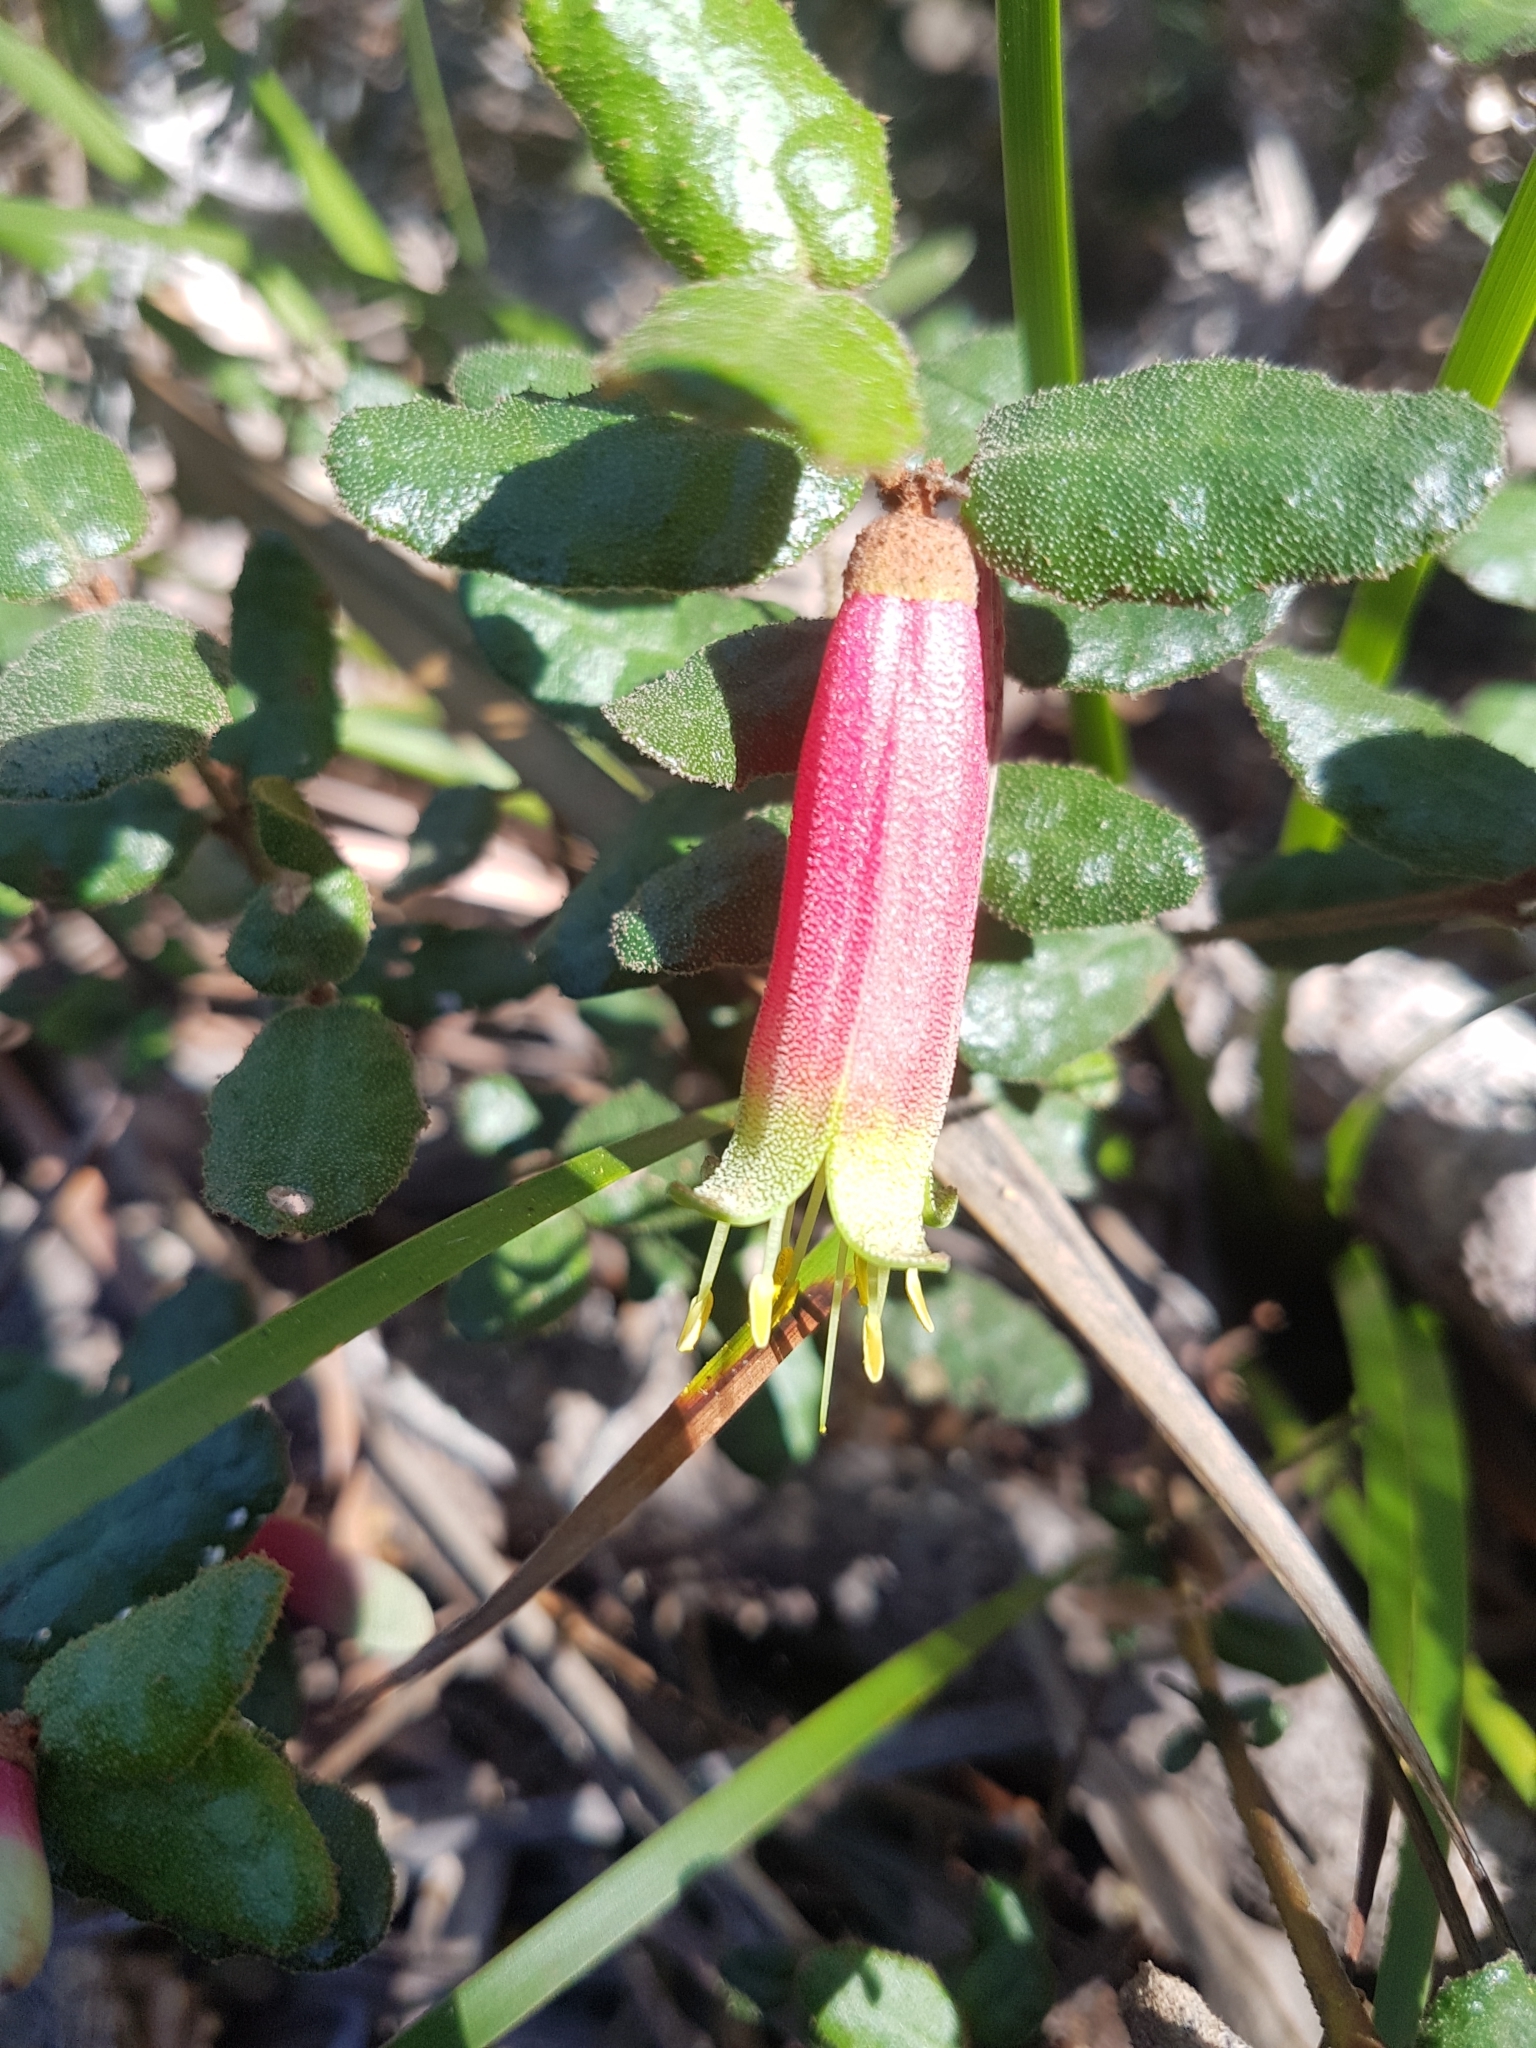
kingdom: Plantae
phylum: Tracheophyta
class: Magnoliopsida
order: Sapindales
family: Rutaceae
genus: Correa
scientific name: Correa reflexa
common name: Common correa
